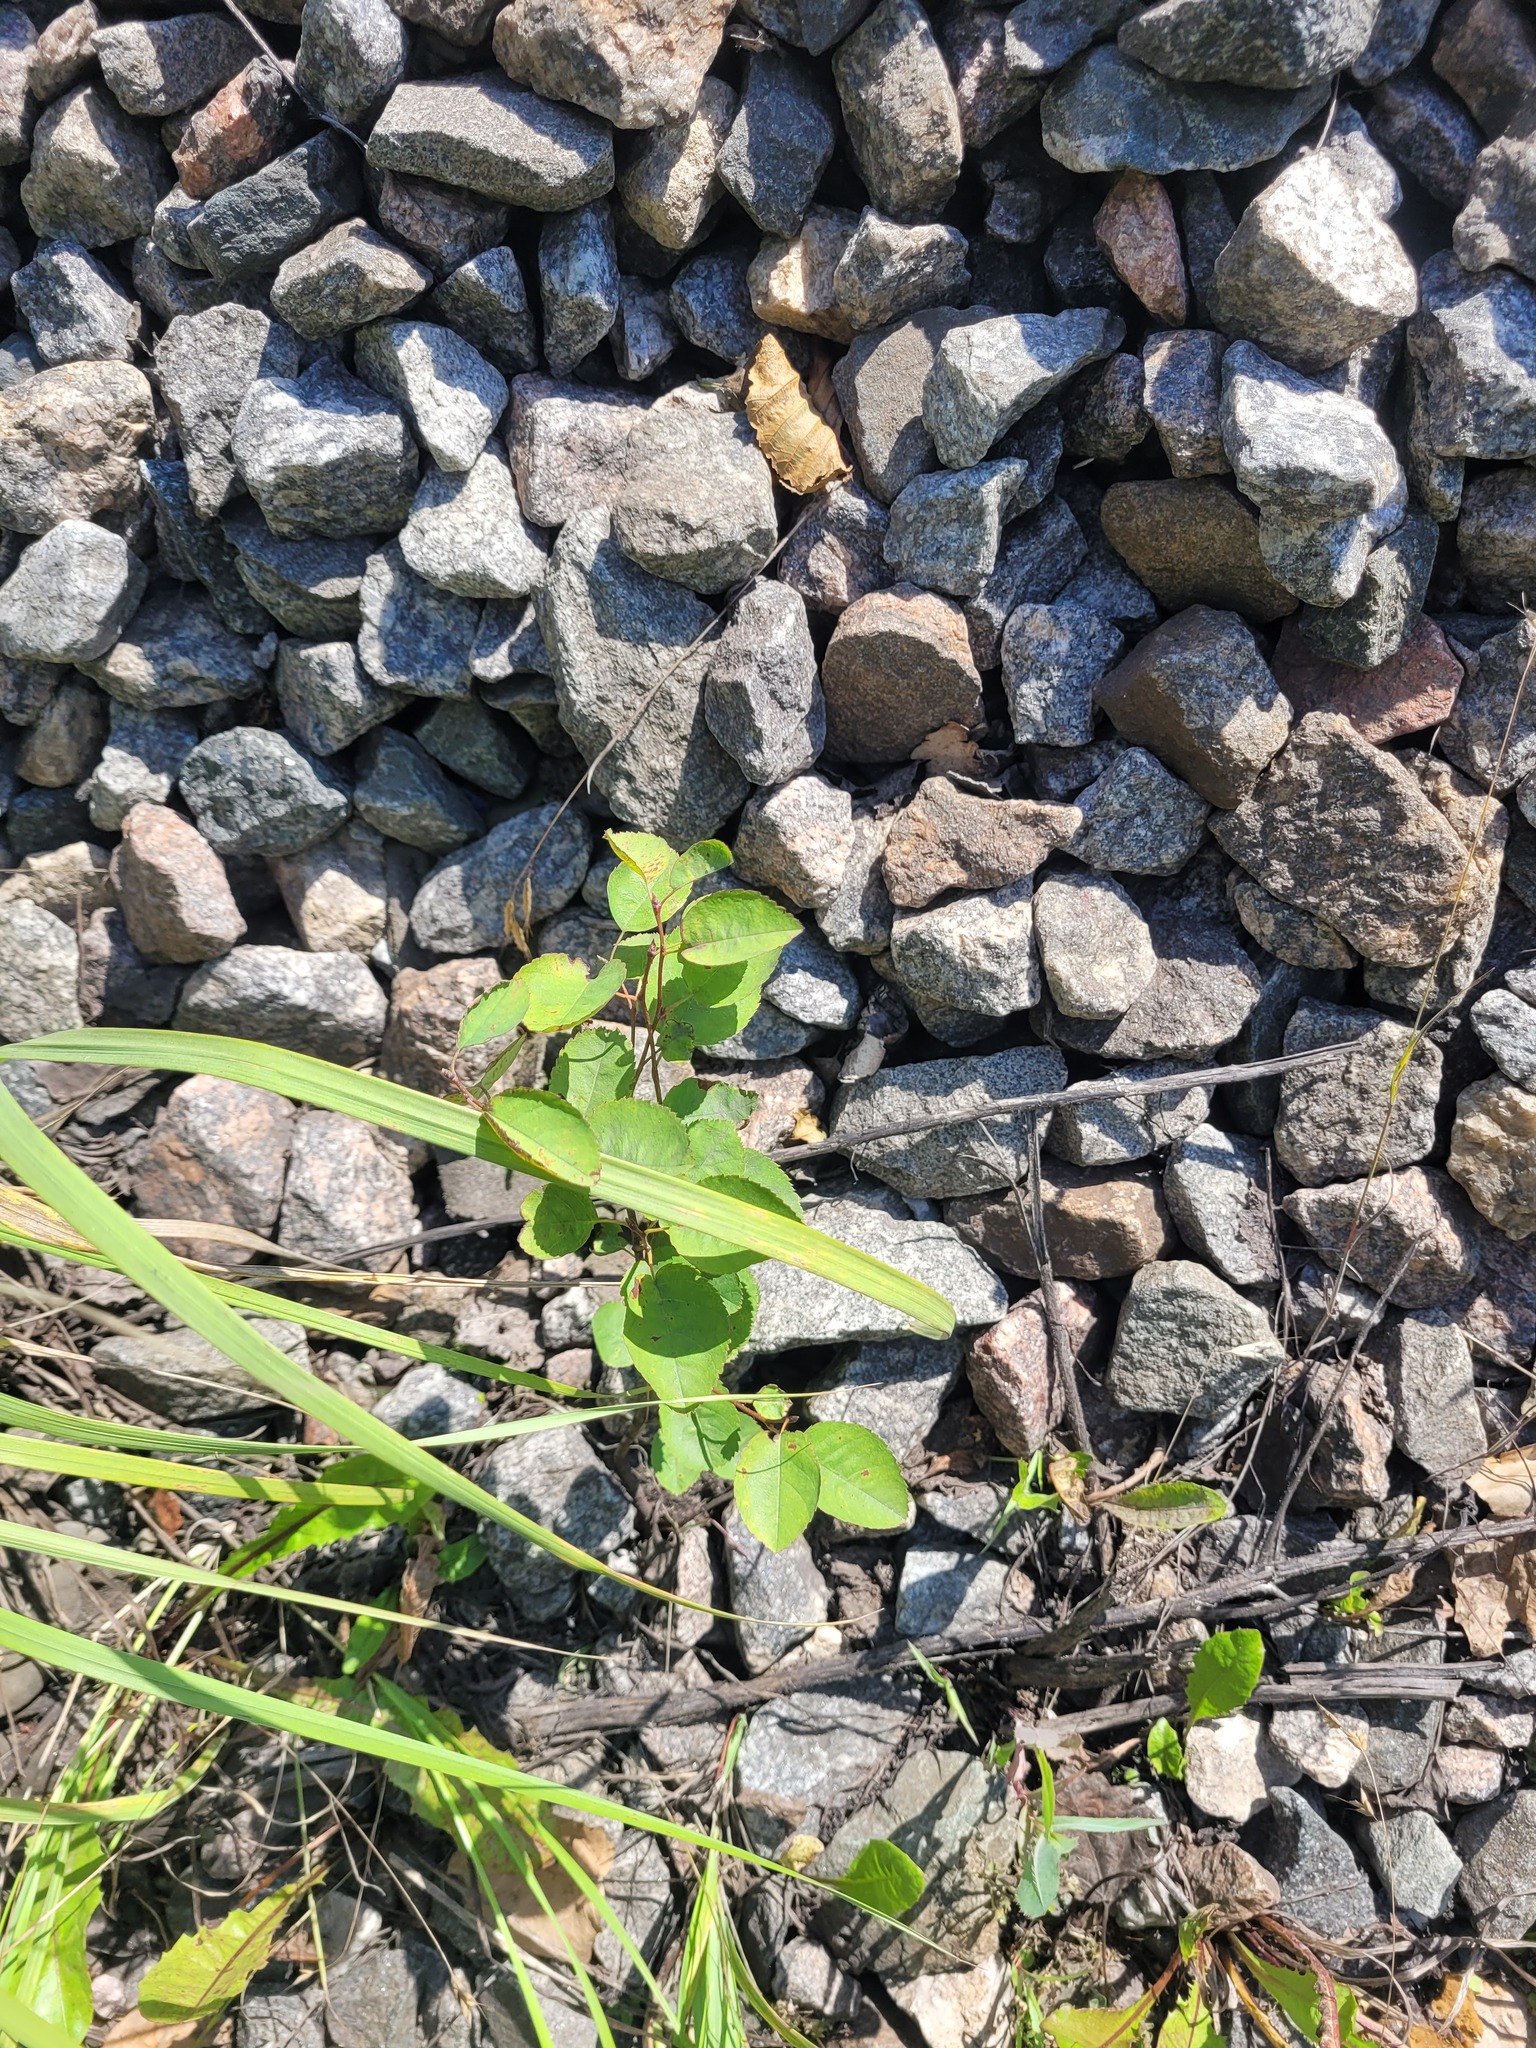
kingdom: Plantae
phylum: Tracheophyta
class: Magnoliopsida
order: Rosales
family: Rosaceae
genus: Amelanchier
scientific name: Amelanchier
